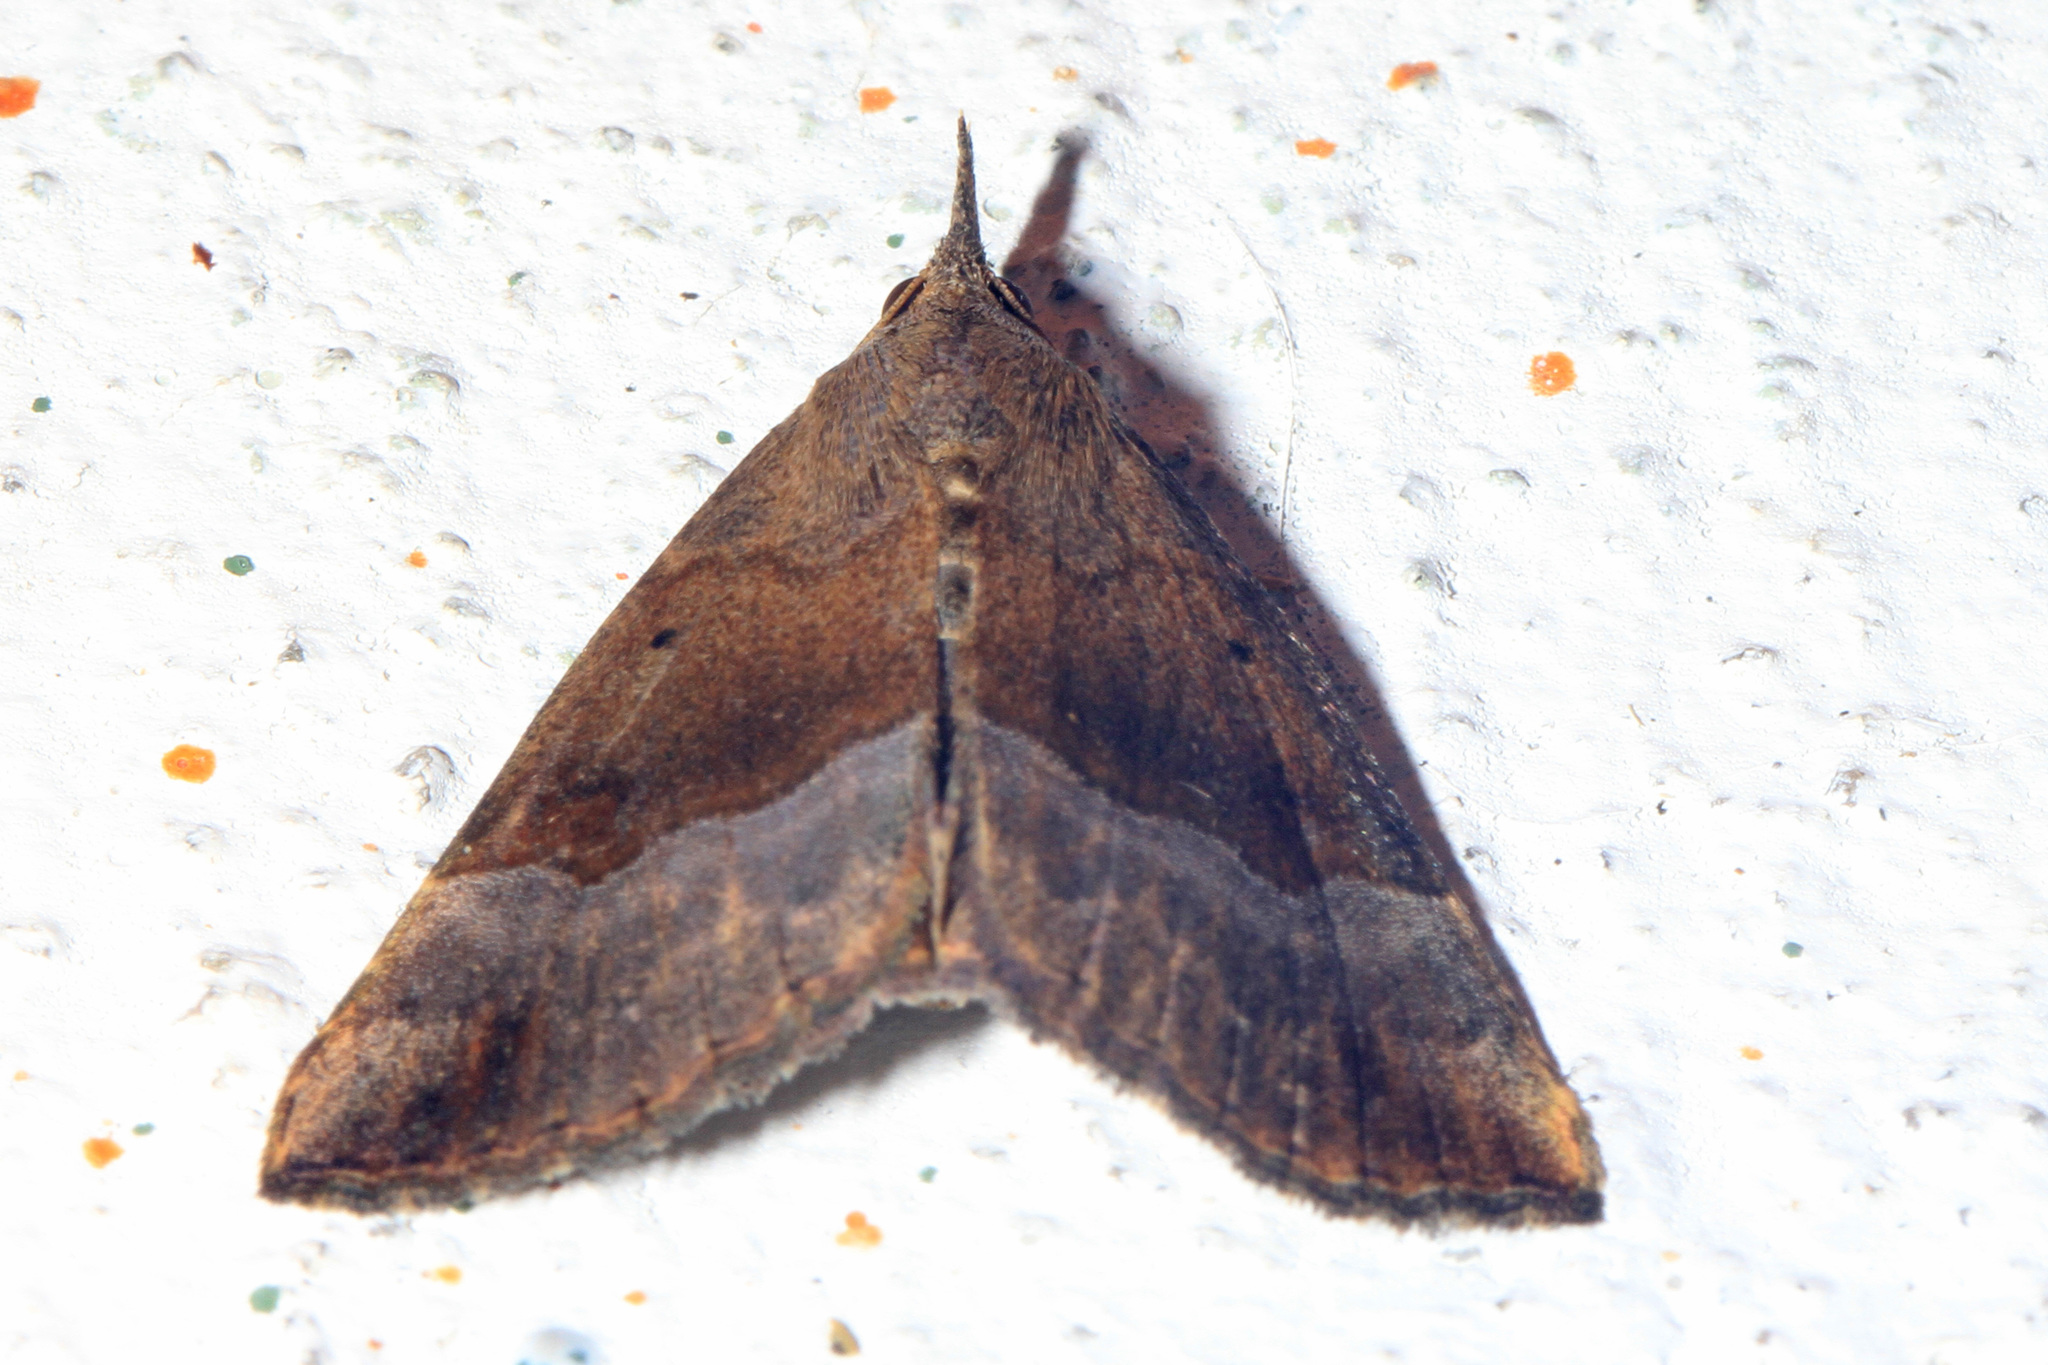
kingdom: Animalia
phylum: Arthropoda
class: Insecta
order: Lepidoptera
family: Erebidae
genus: Hypena
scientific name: Hypena madefactalis
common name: Gray-edged snout
